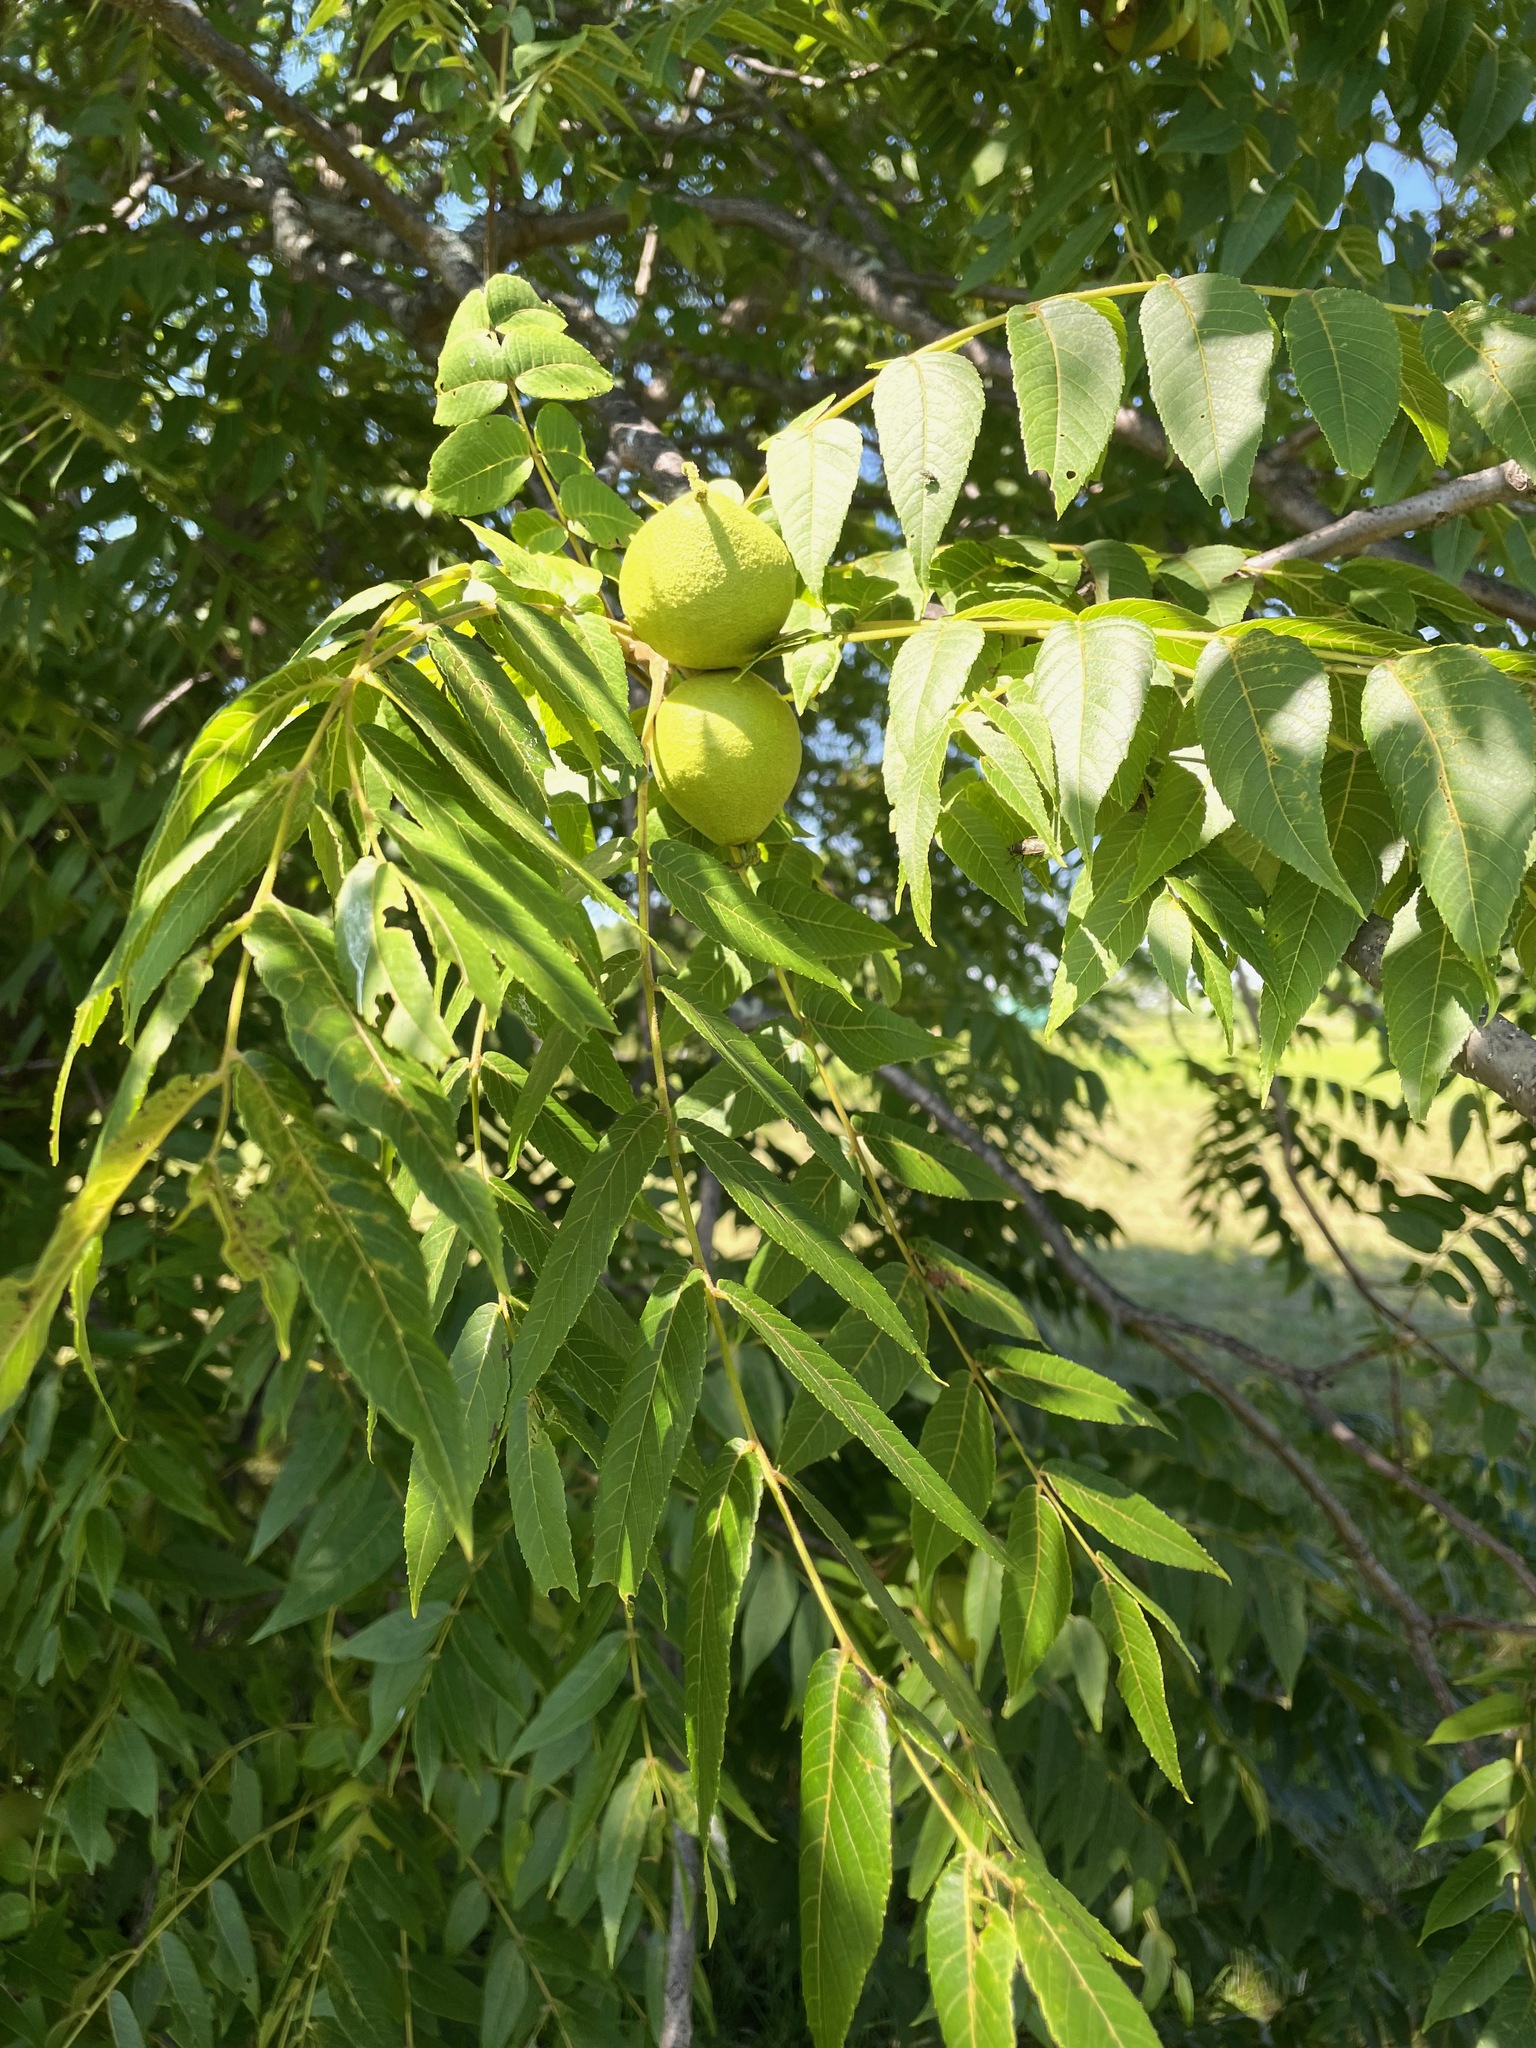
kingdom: Plantae
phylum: Tracheophyta
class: Magnoliopsida
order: Fagales
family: Juglandaceae
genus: Juglans
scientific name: Juglans nigra
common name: Black walnut
